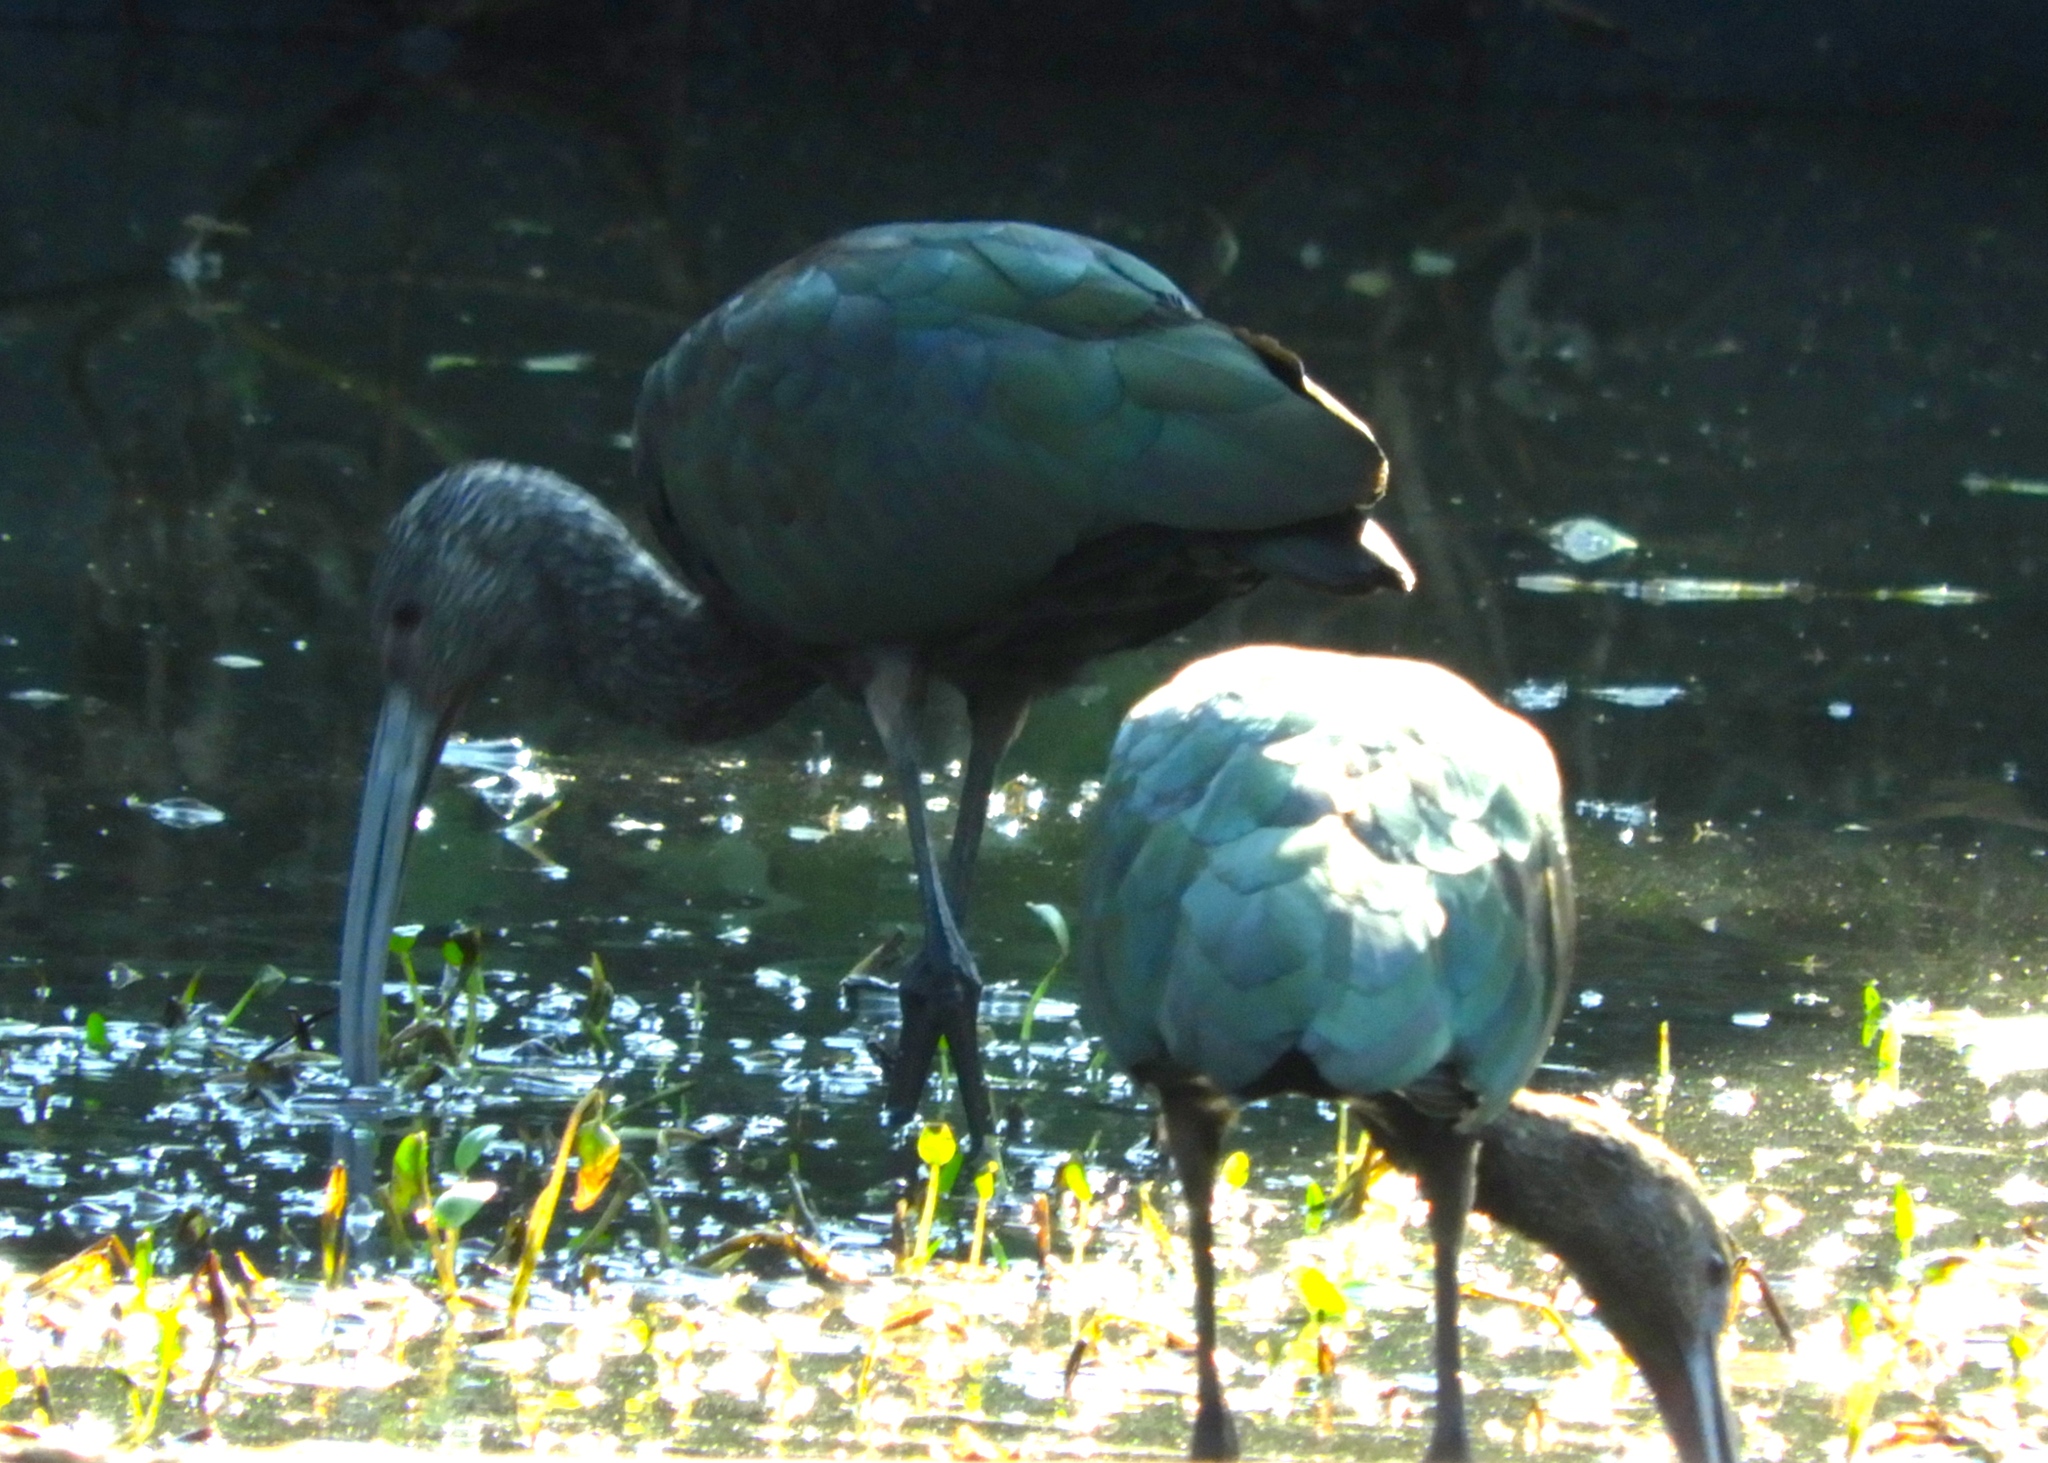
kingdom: Animalia
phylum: Chordata
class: Aves
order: Pelecaniformes
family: Threskiornithidae
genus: Plegadis
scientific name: Plegadis chihi
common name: White-faced ibis
